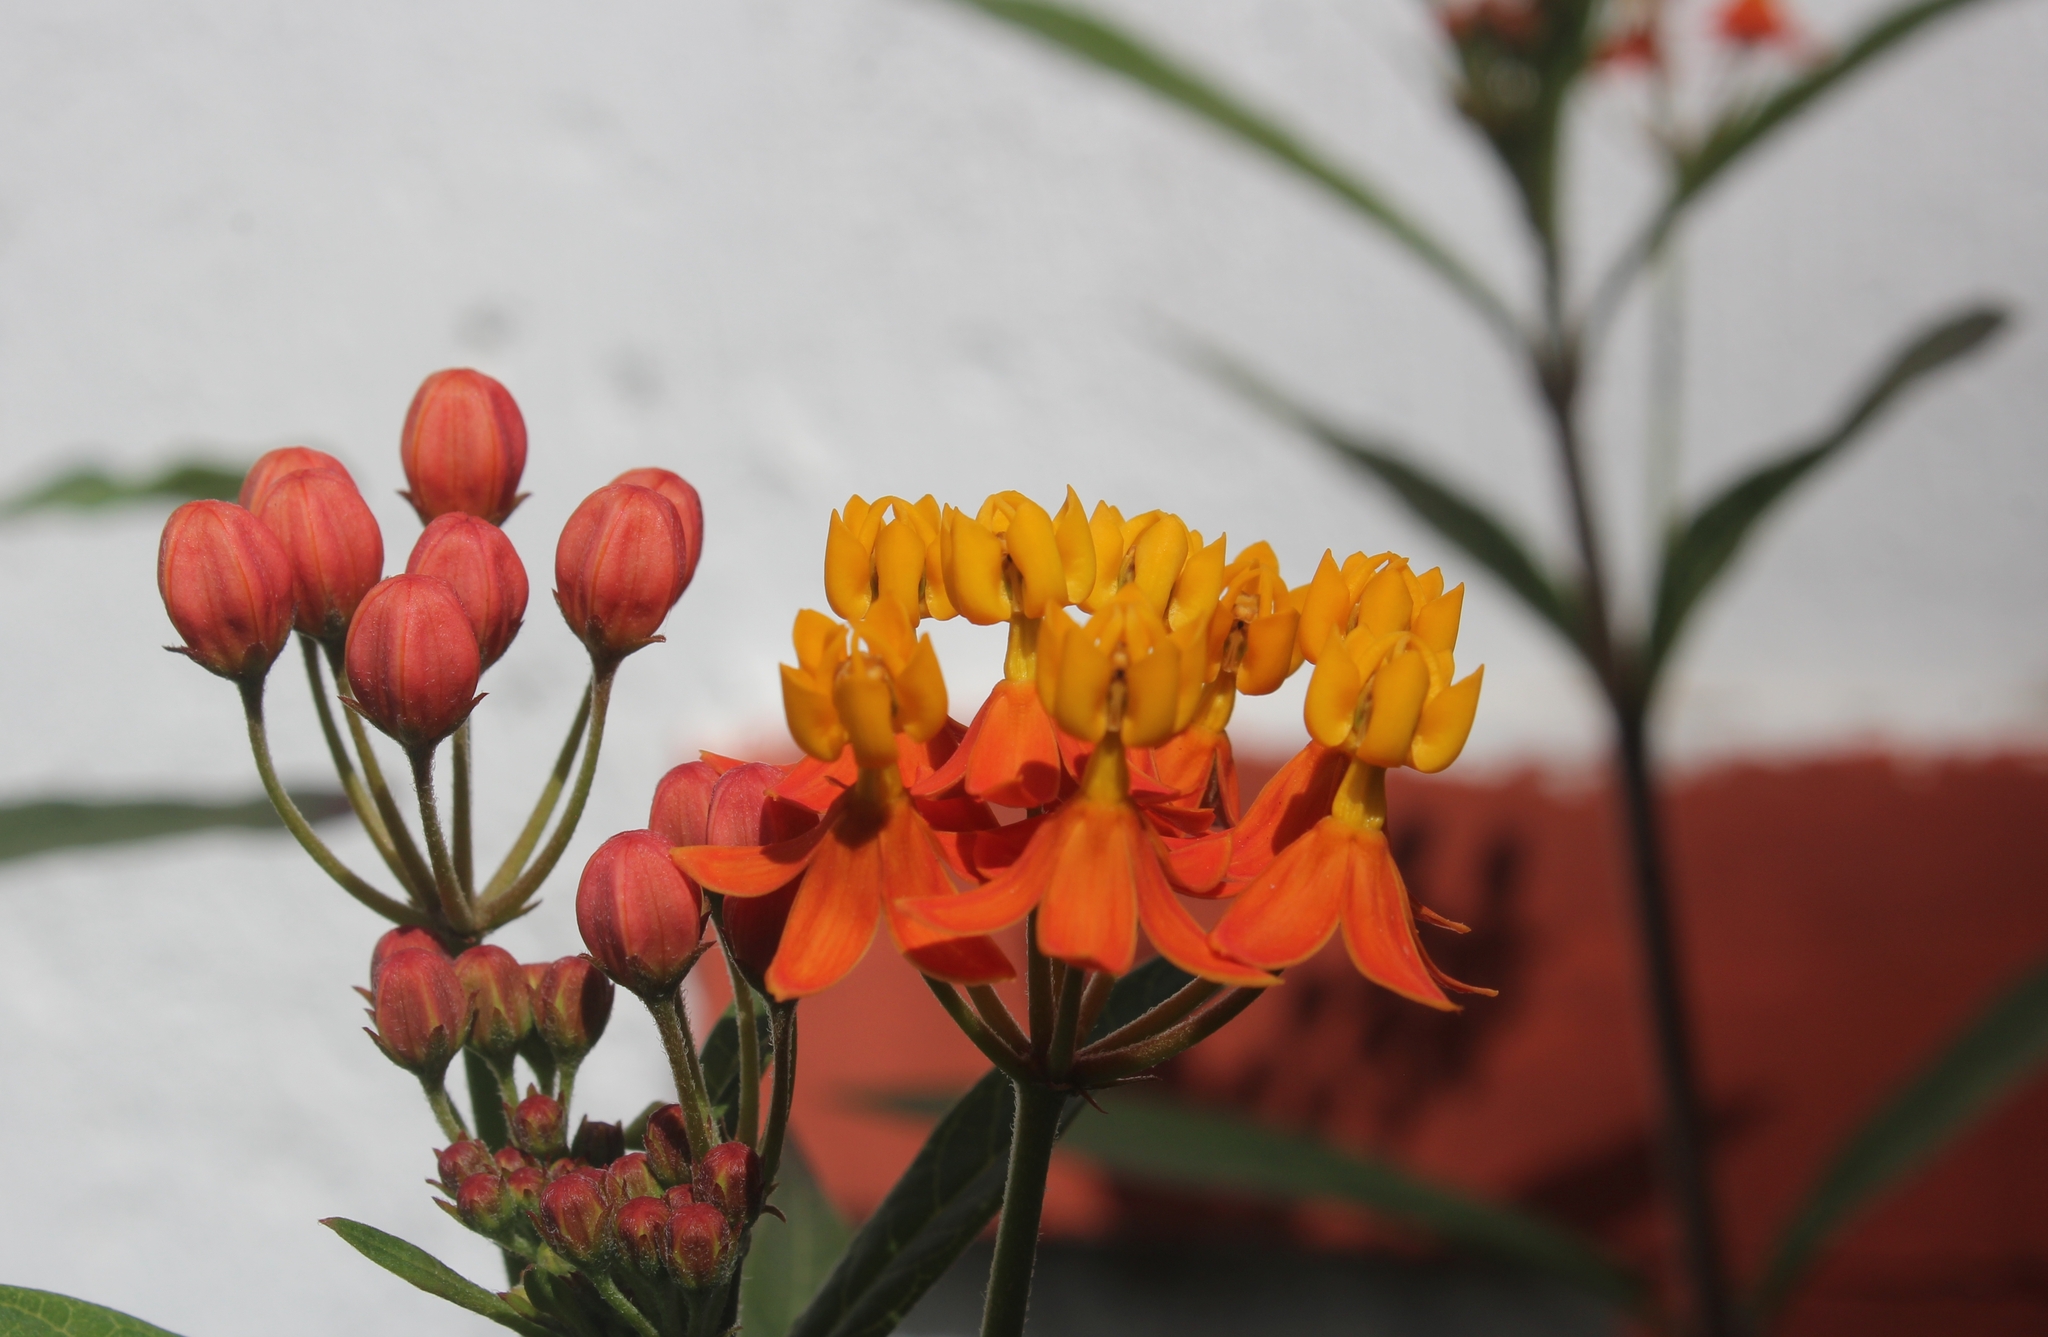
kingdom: Plantae
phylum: Tracheophyta
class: Magnoliopsida
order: Gentianales
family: Apocynaceae
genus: Asclepias
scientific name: Asclepias curassavica
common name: Bloodflower
